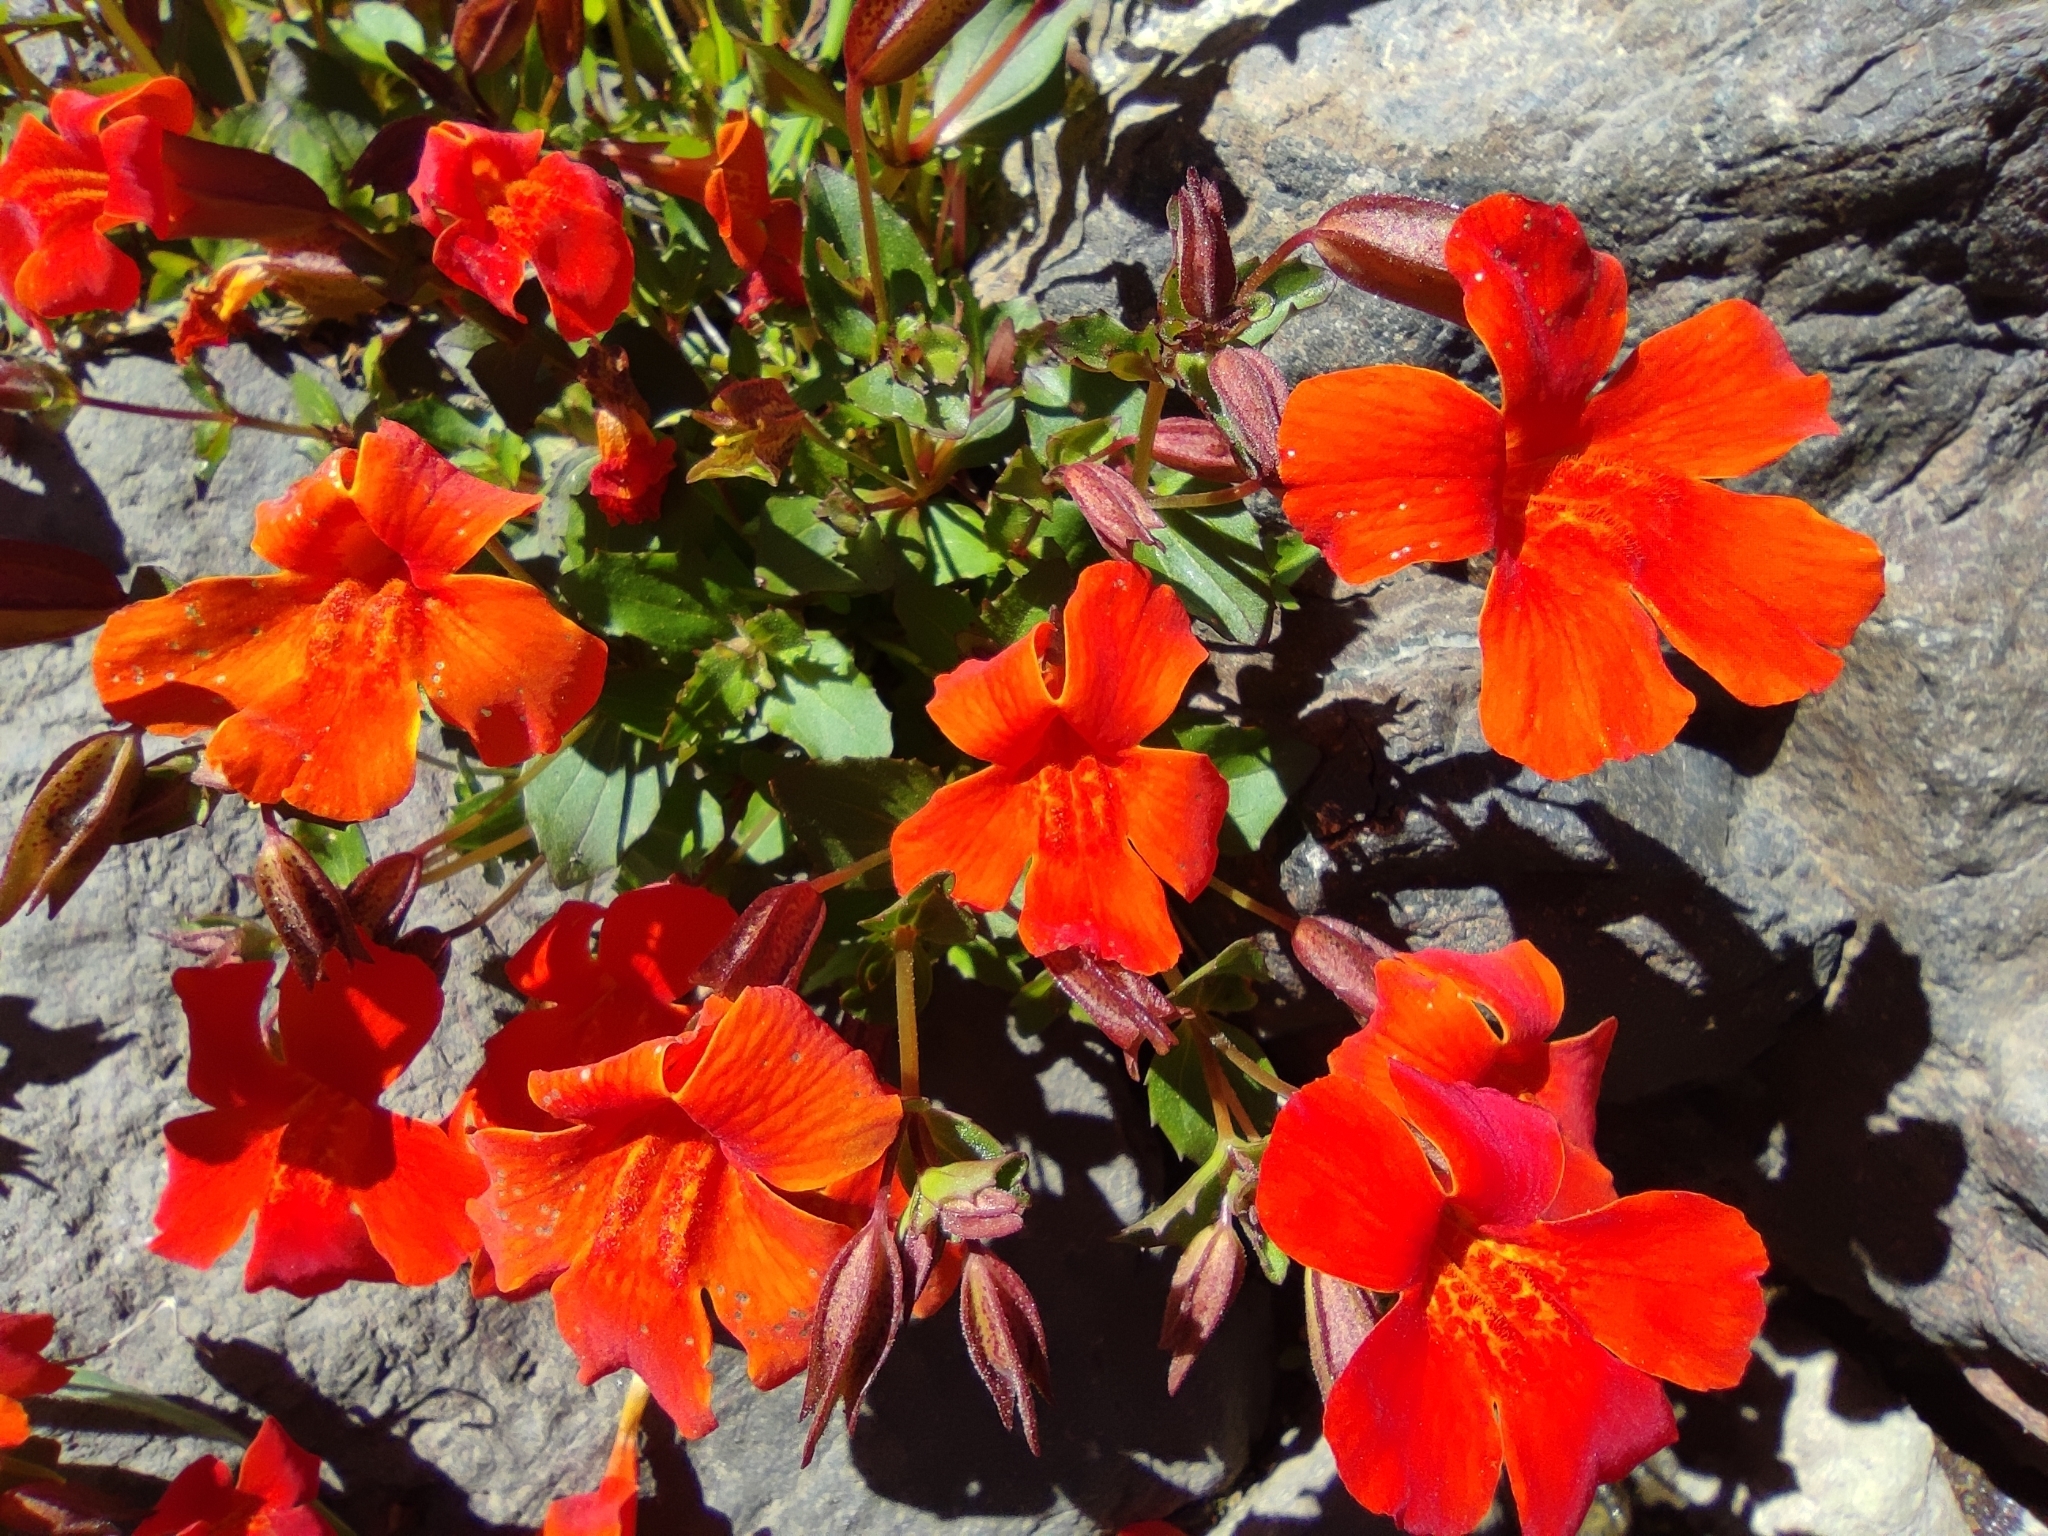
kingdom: Plantae
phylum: Tracheophyta
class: Magnoliopsida
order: Lamiales
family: Phrymaceae
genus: Erythranthe
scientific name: Erythranthe cuprea
